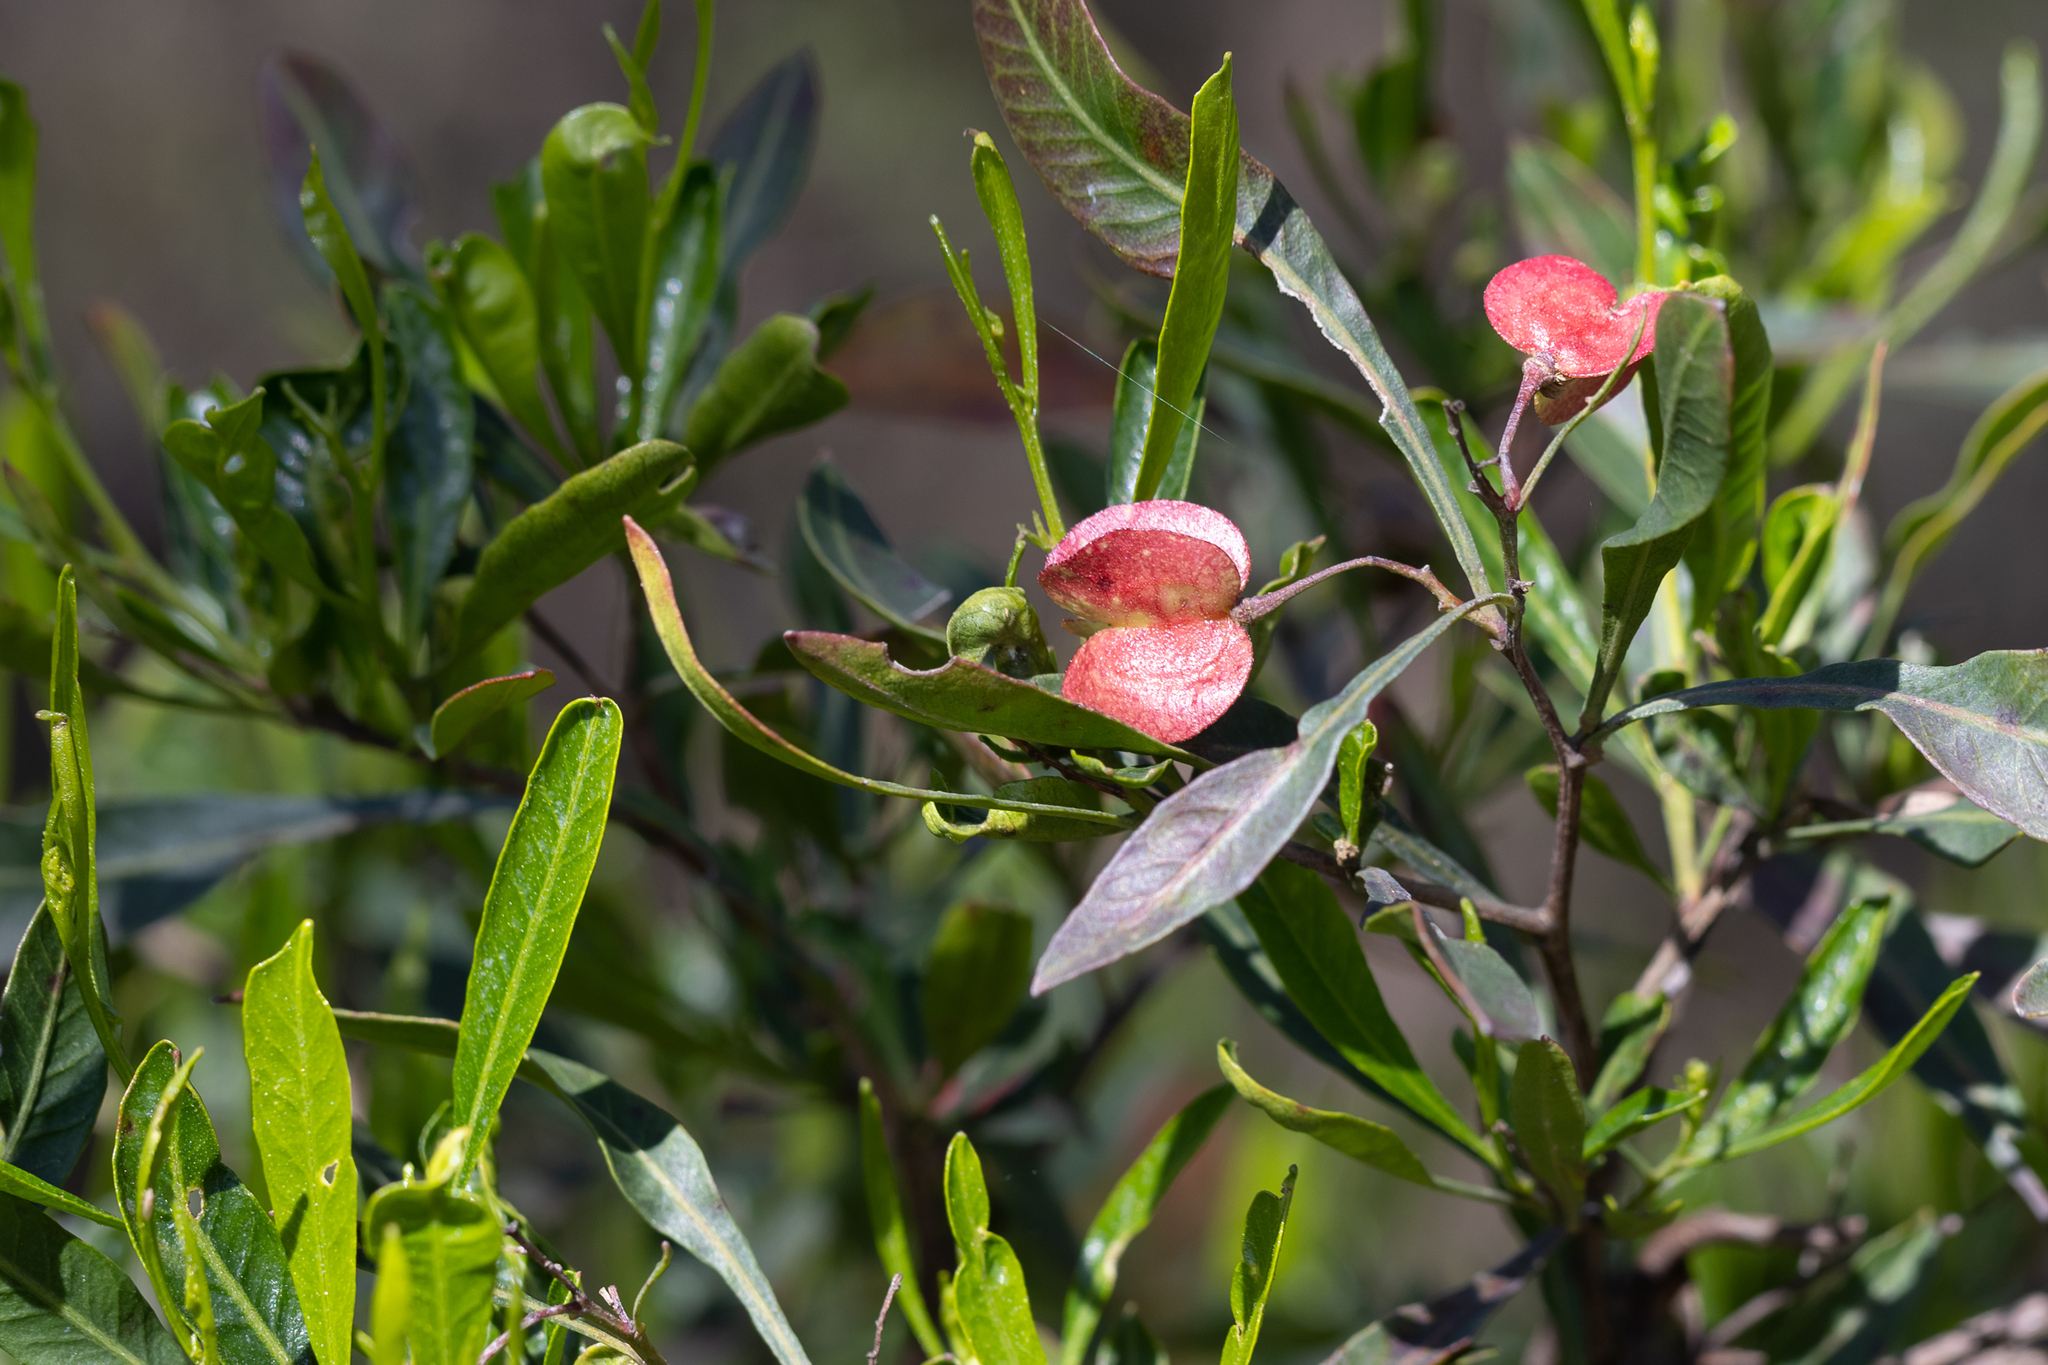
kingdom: Plantae
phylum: Tracheophyta
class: Magnoliopsida
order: Sapindales
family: Sapindaceae
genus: Dodonaea
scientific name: Dodonaea viscosa
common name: Hopbush
